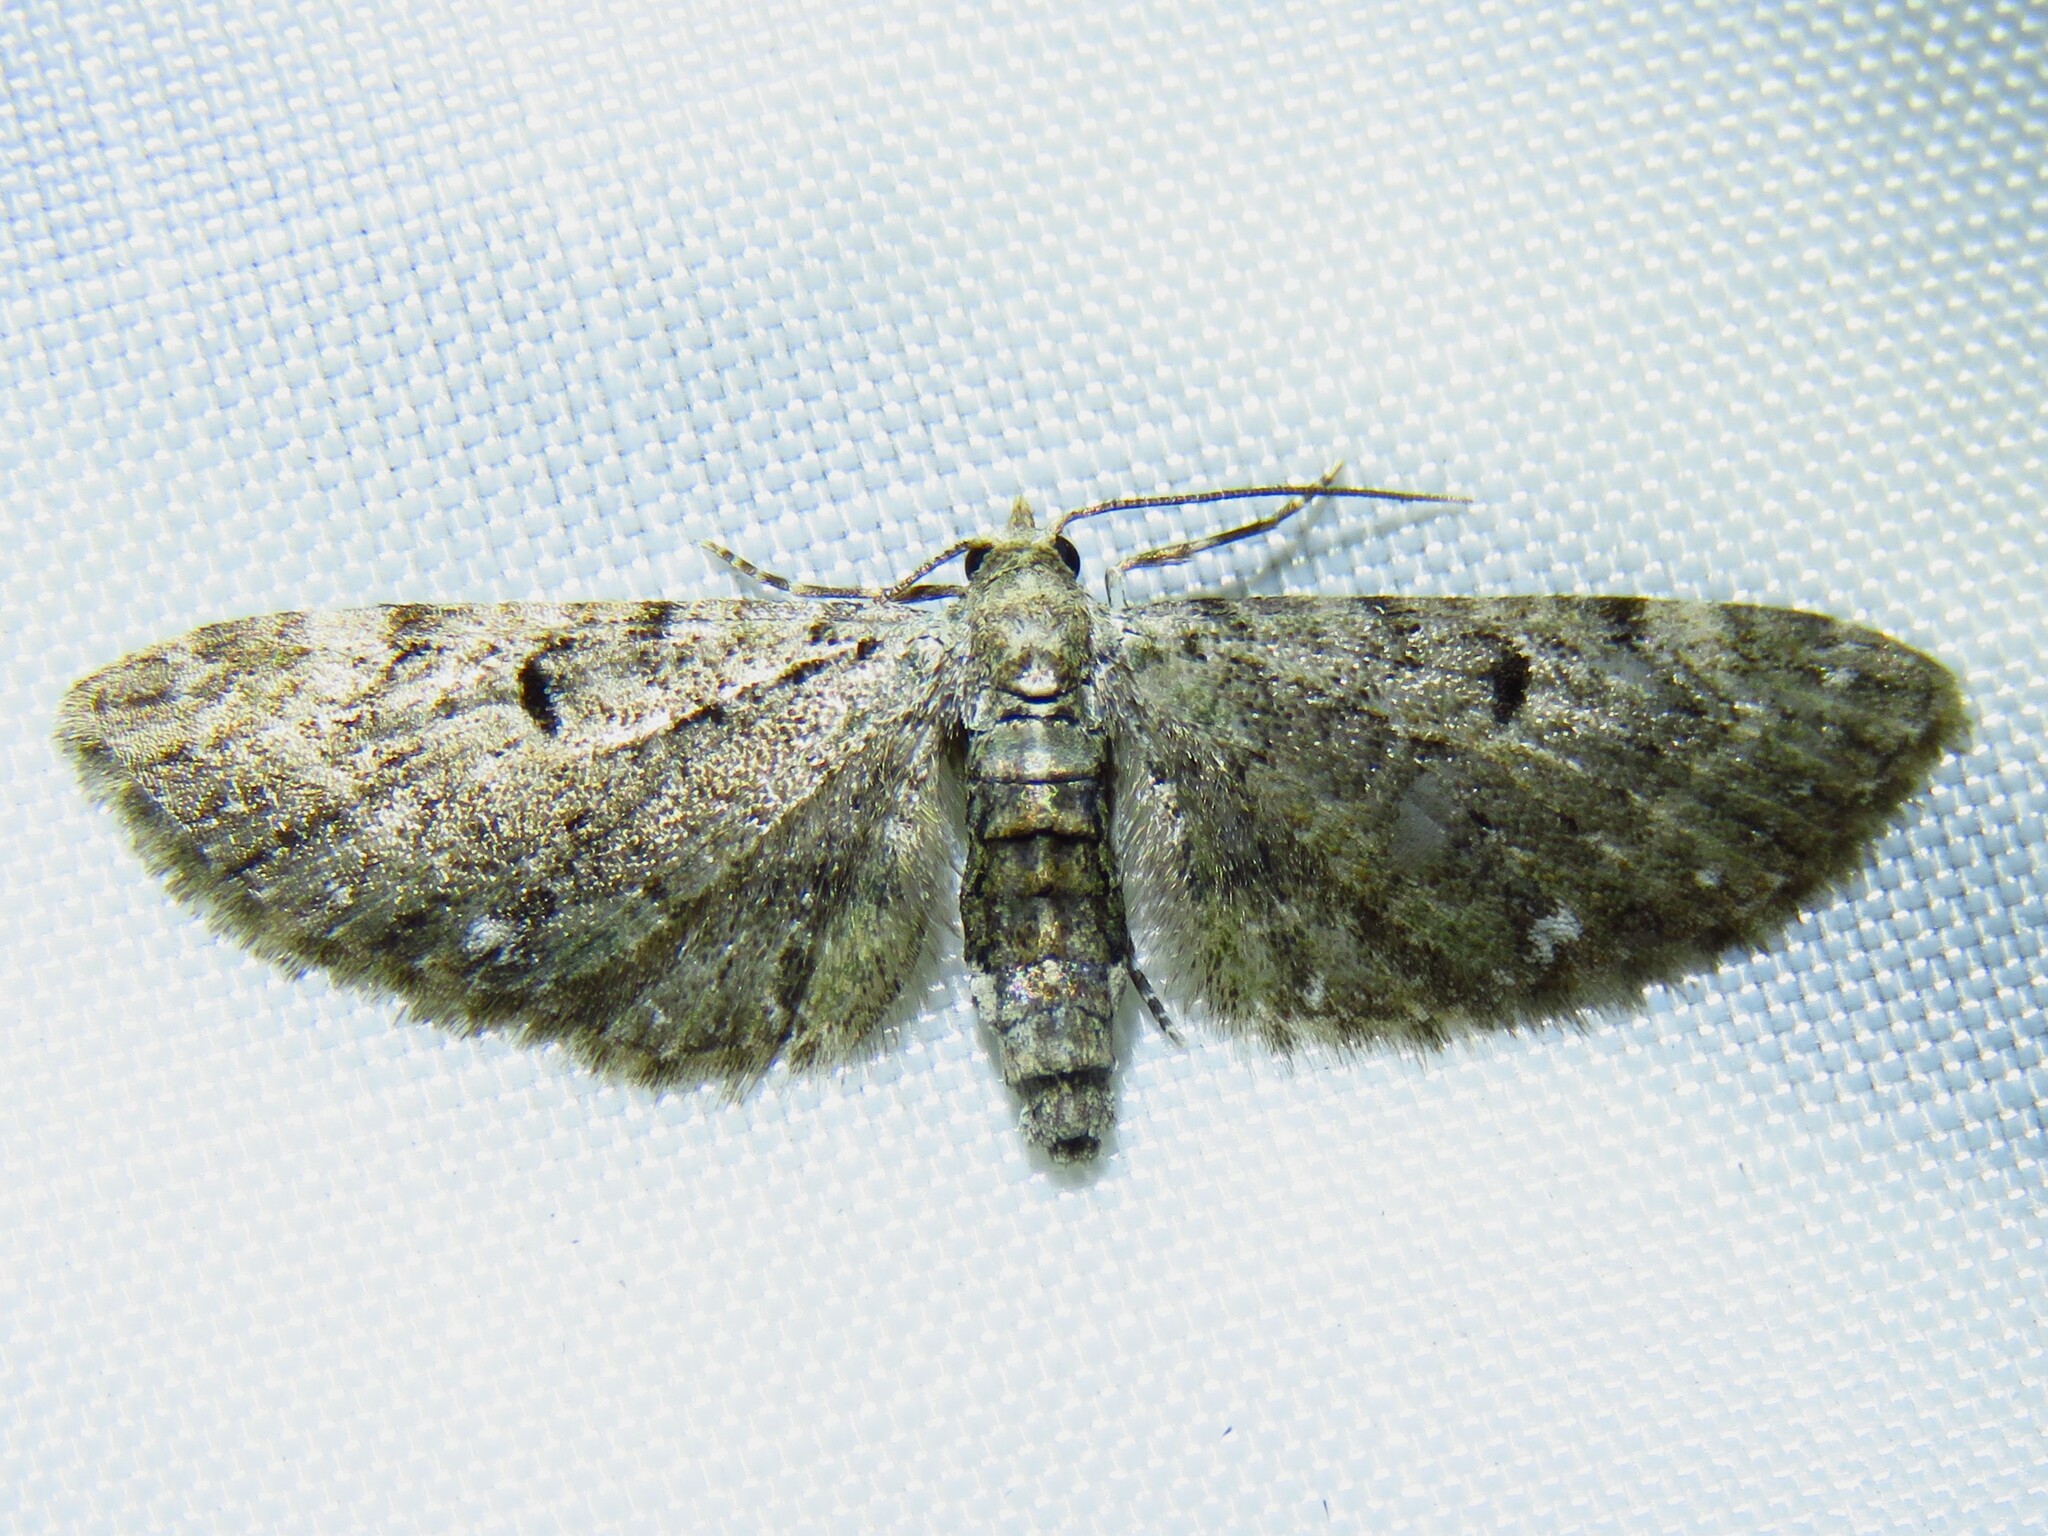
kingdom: Animalia
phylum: Arthropoda
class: Insecta
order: Lepidoptera
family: Geometridae
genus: Eupithecia
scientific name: Eupithecia miserulata
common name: Common eupithecia
